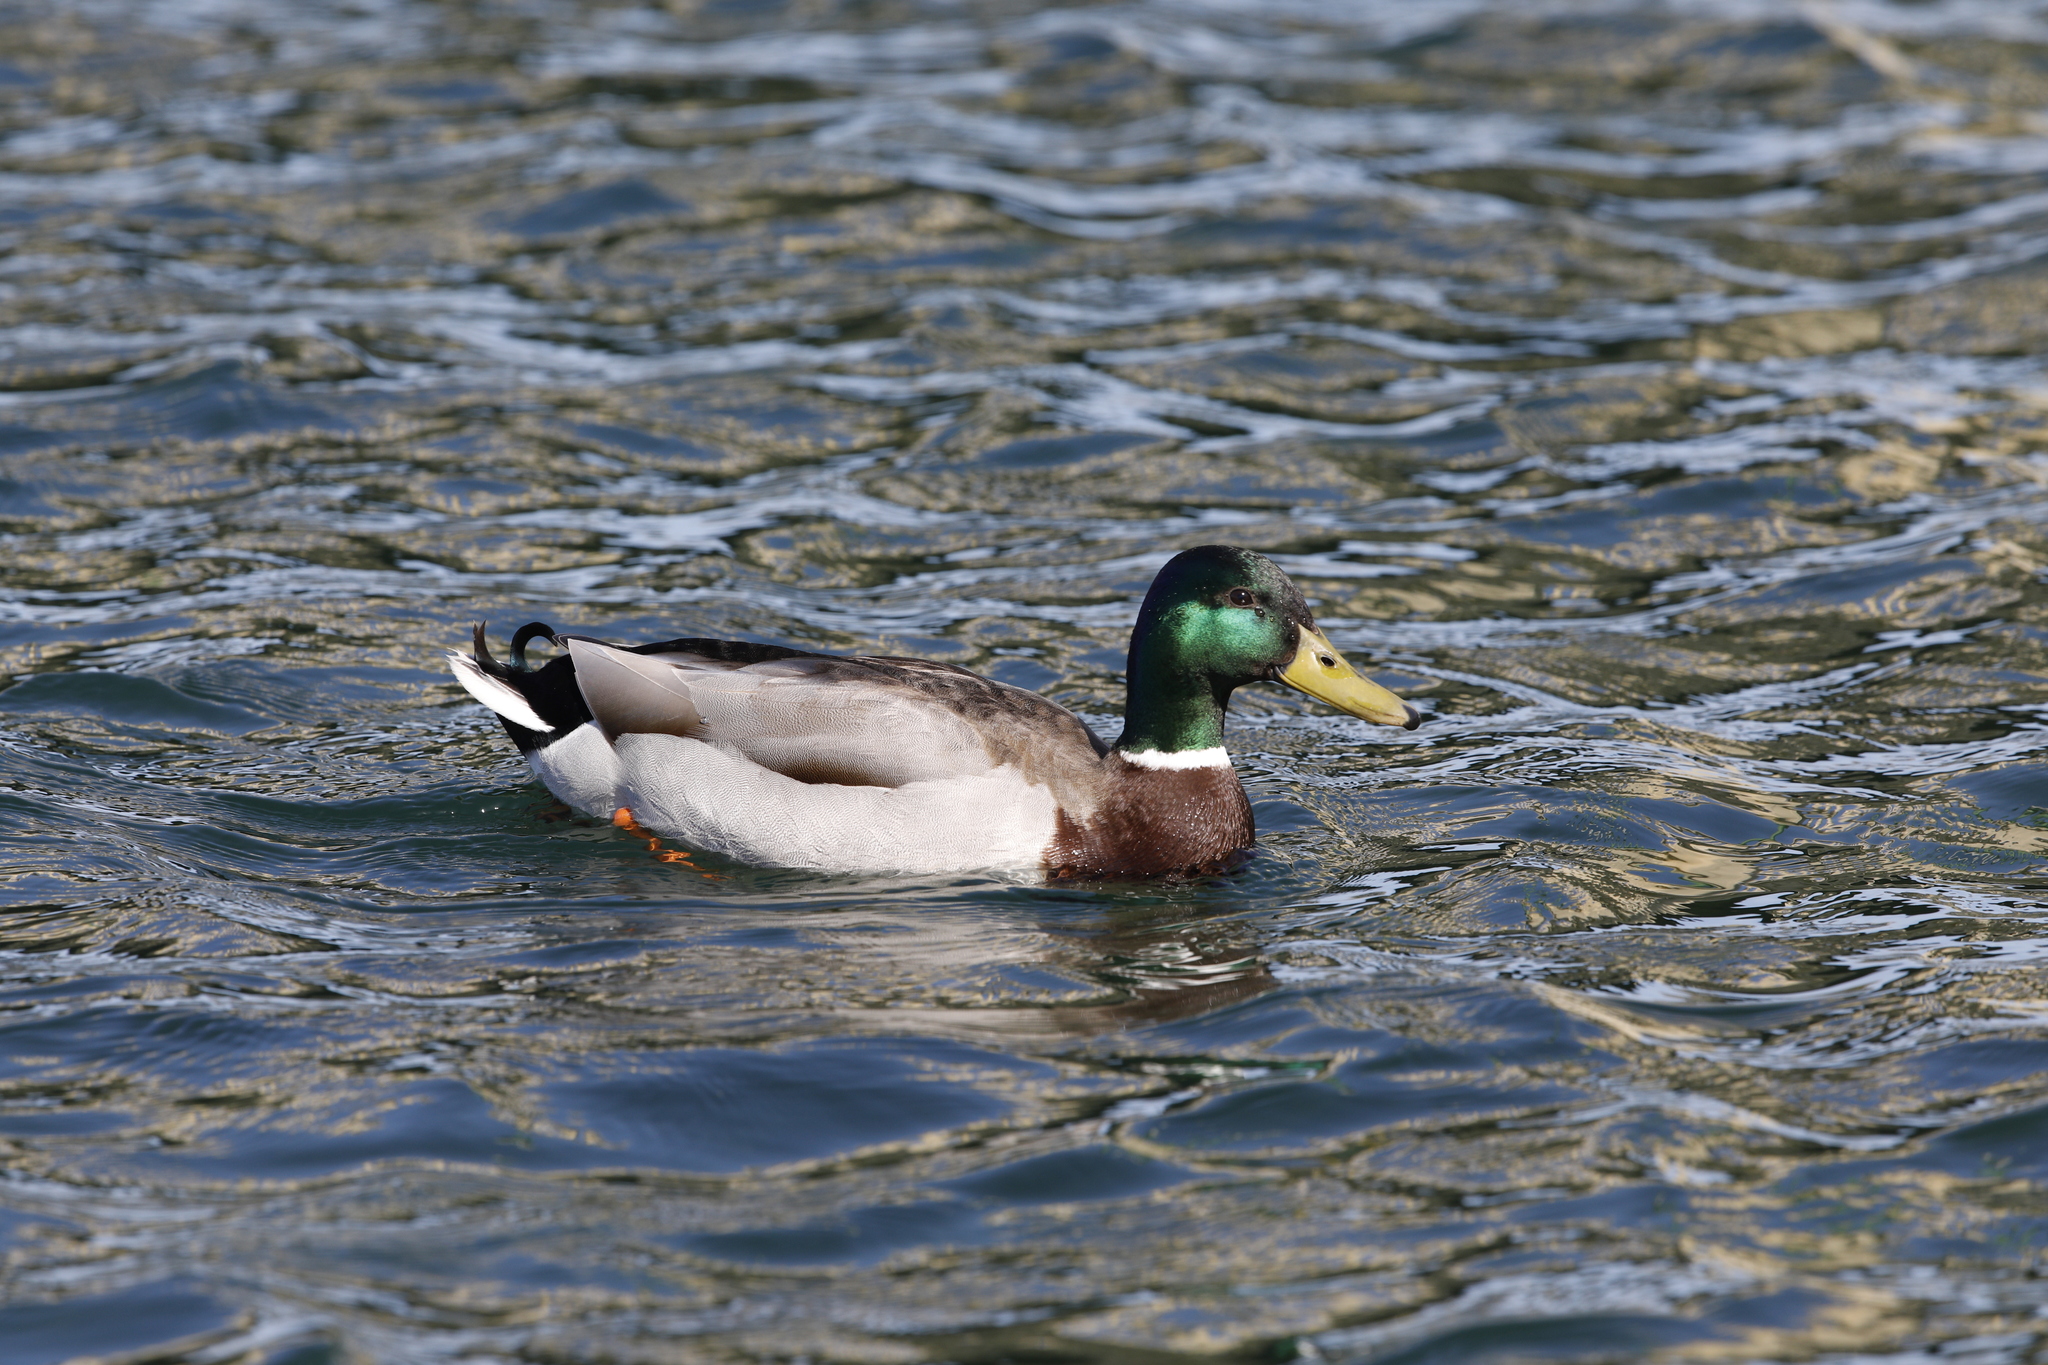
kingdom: Animalia
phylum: Chordata
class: Aves
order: Anseriformes
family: Anatidae
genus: Anas
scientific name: Anas platyrhynchos
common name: Mallard
